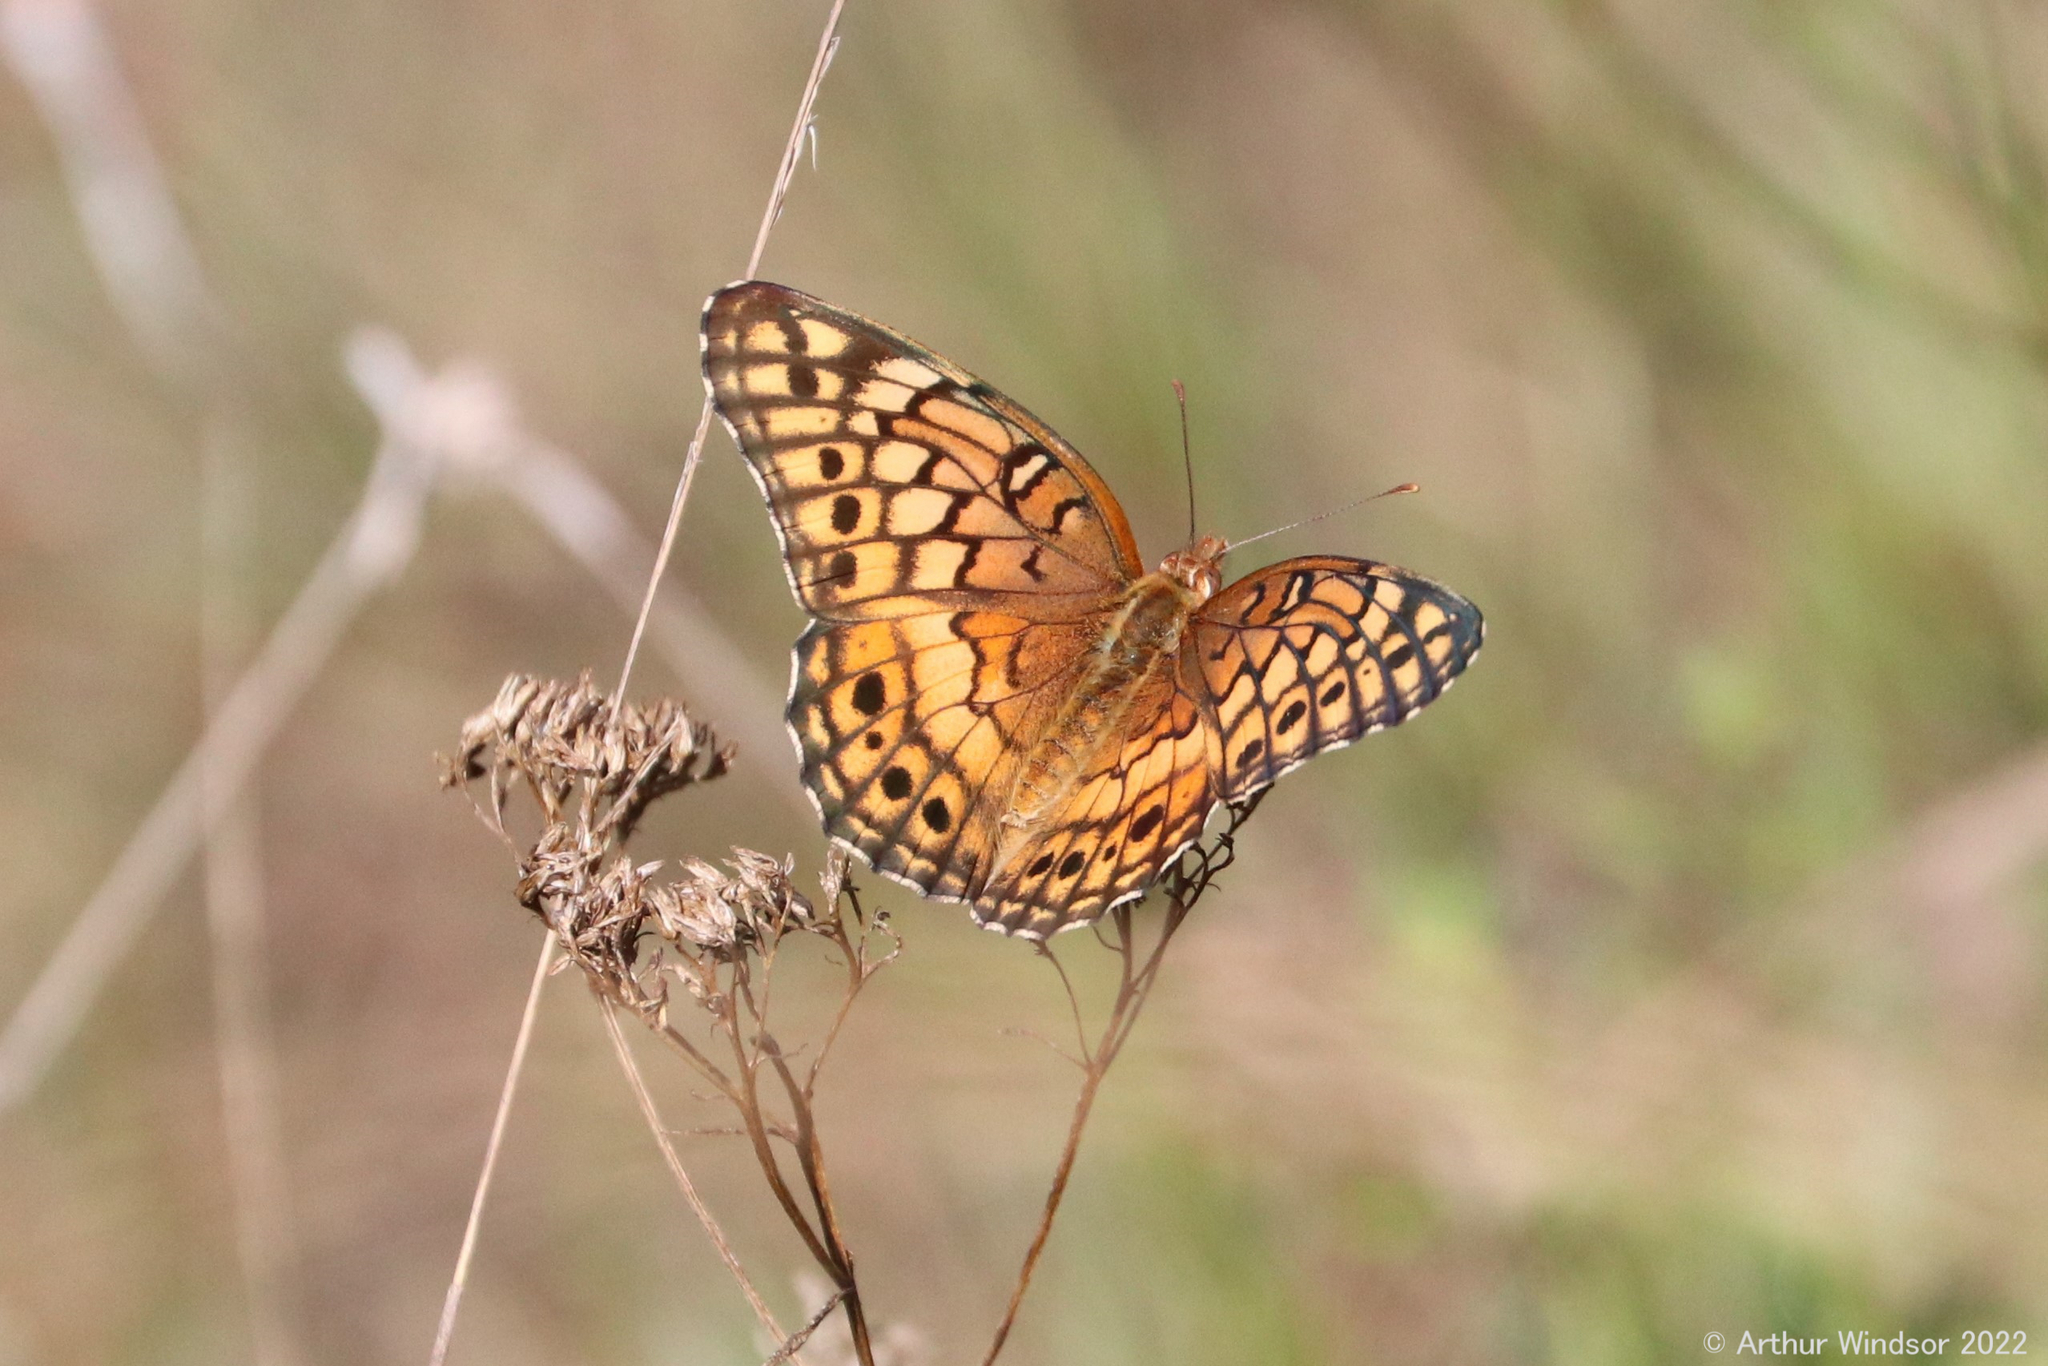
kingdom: Animalia
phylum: Arthropoda
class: Insecta
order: Lepidoptera
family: Nymphalidae
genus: Euptoieta
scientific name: Euptoieta claudia
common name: Variegated fritillary
